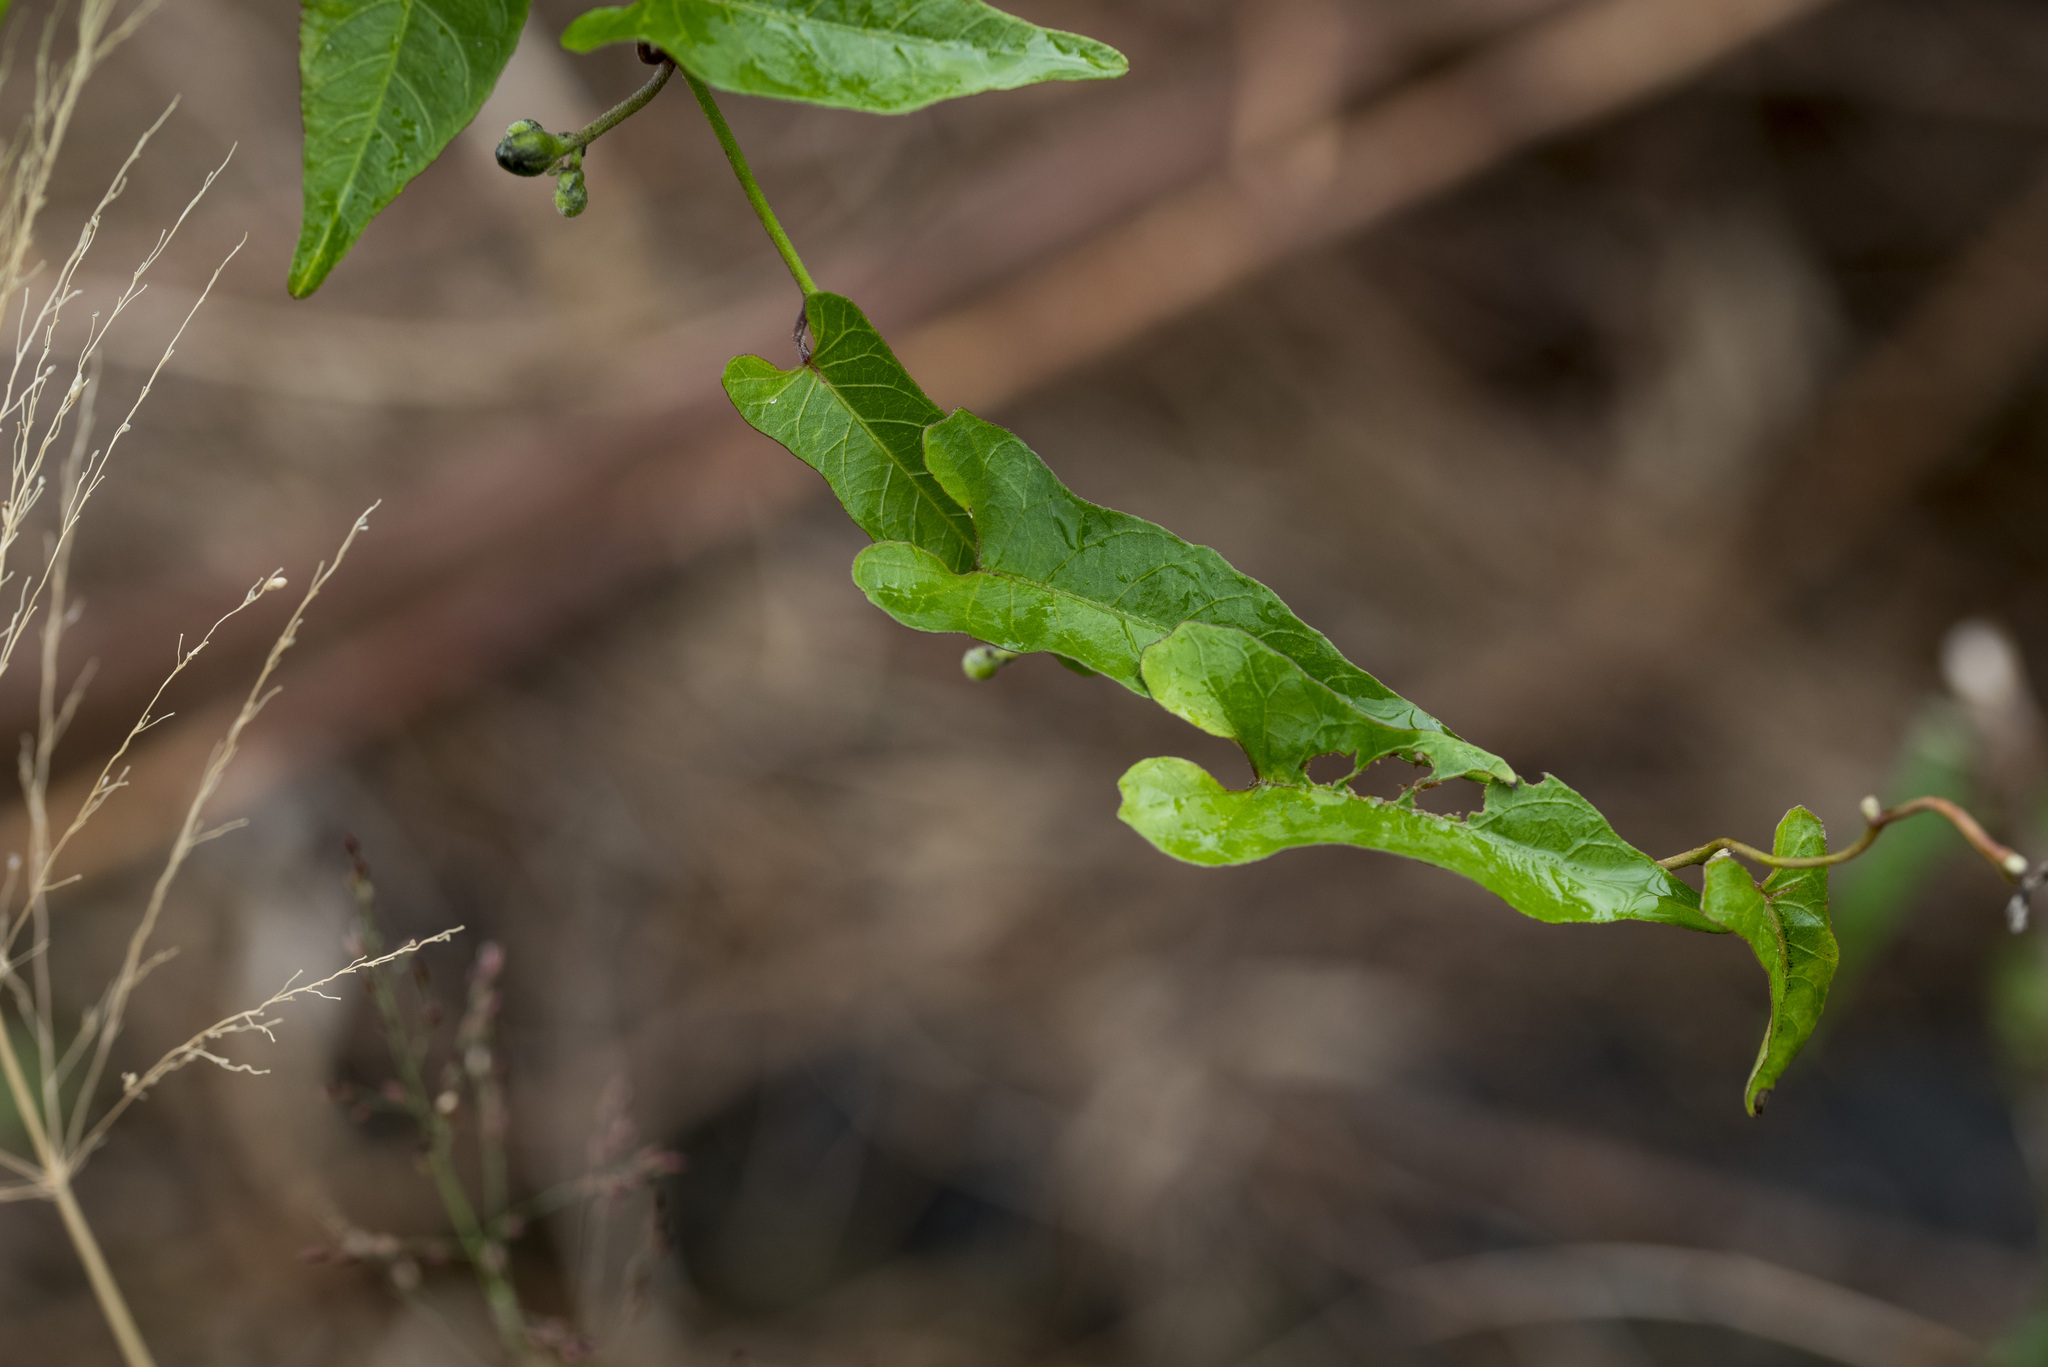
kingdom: Plantae
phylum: Tracheophyta
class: Magnoliopsida
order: Solanales
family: Convolvulaceae
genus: Merremia
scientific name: Merremia gemella
